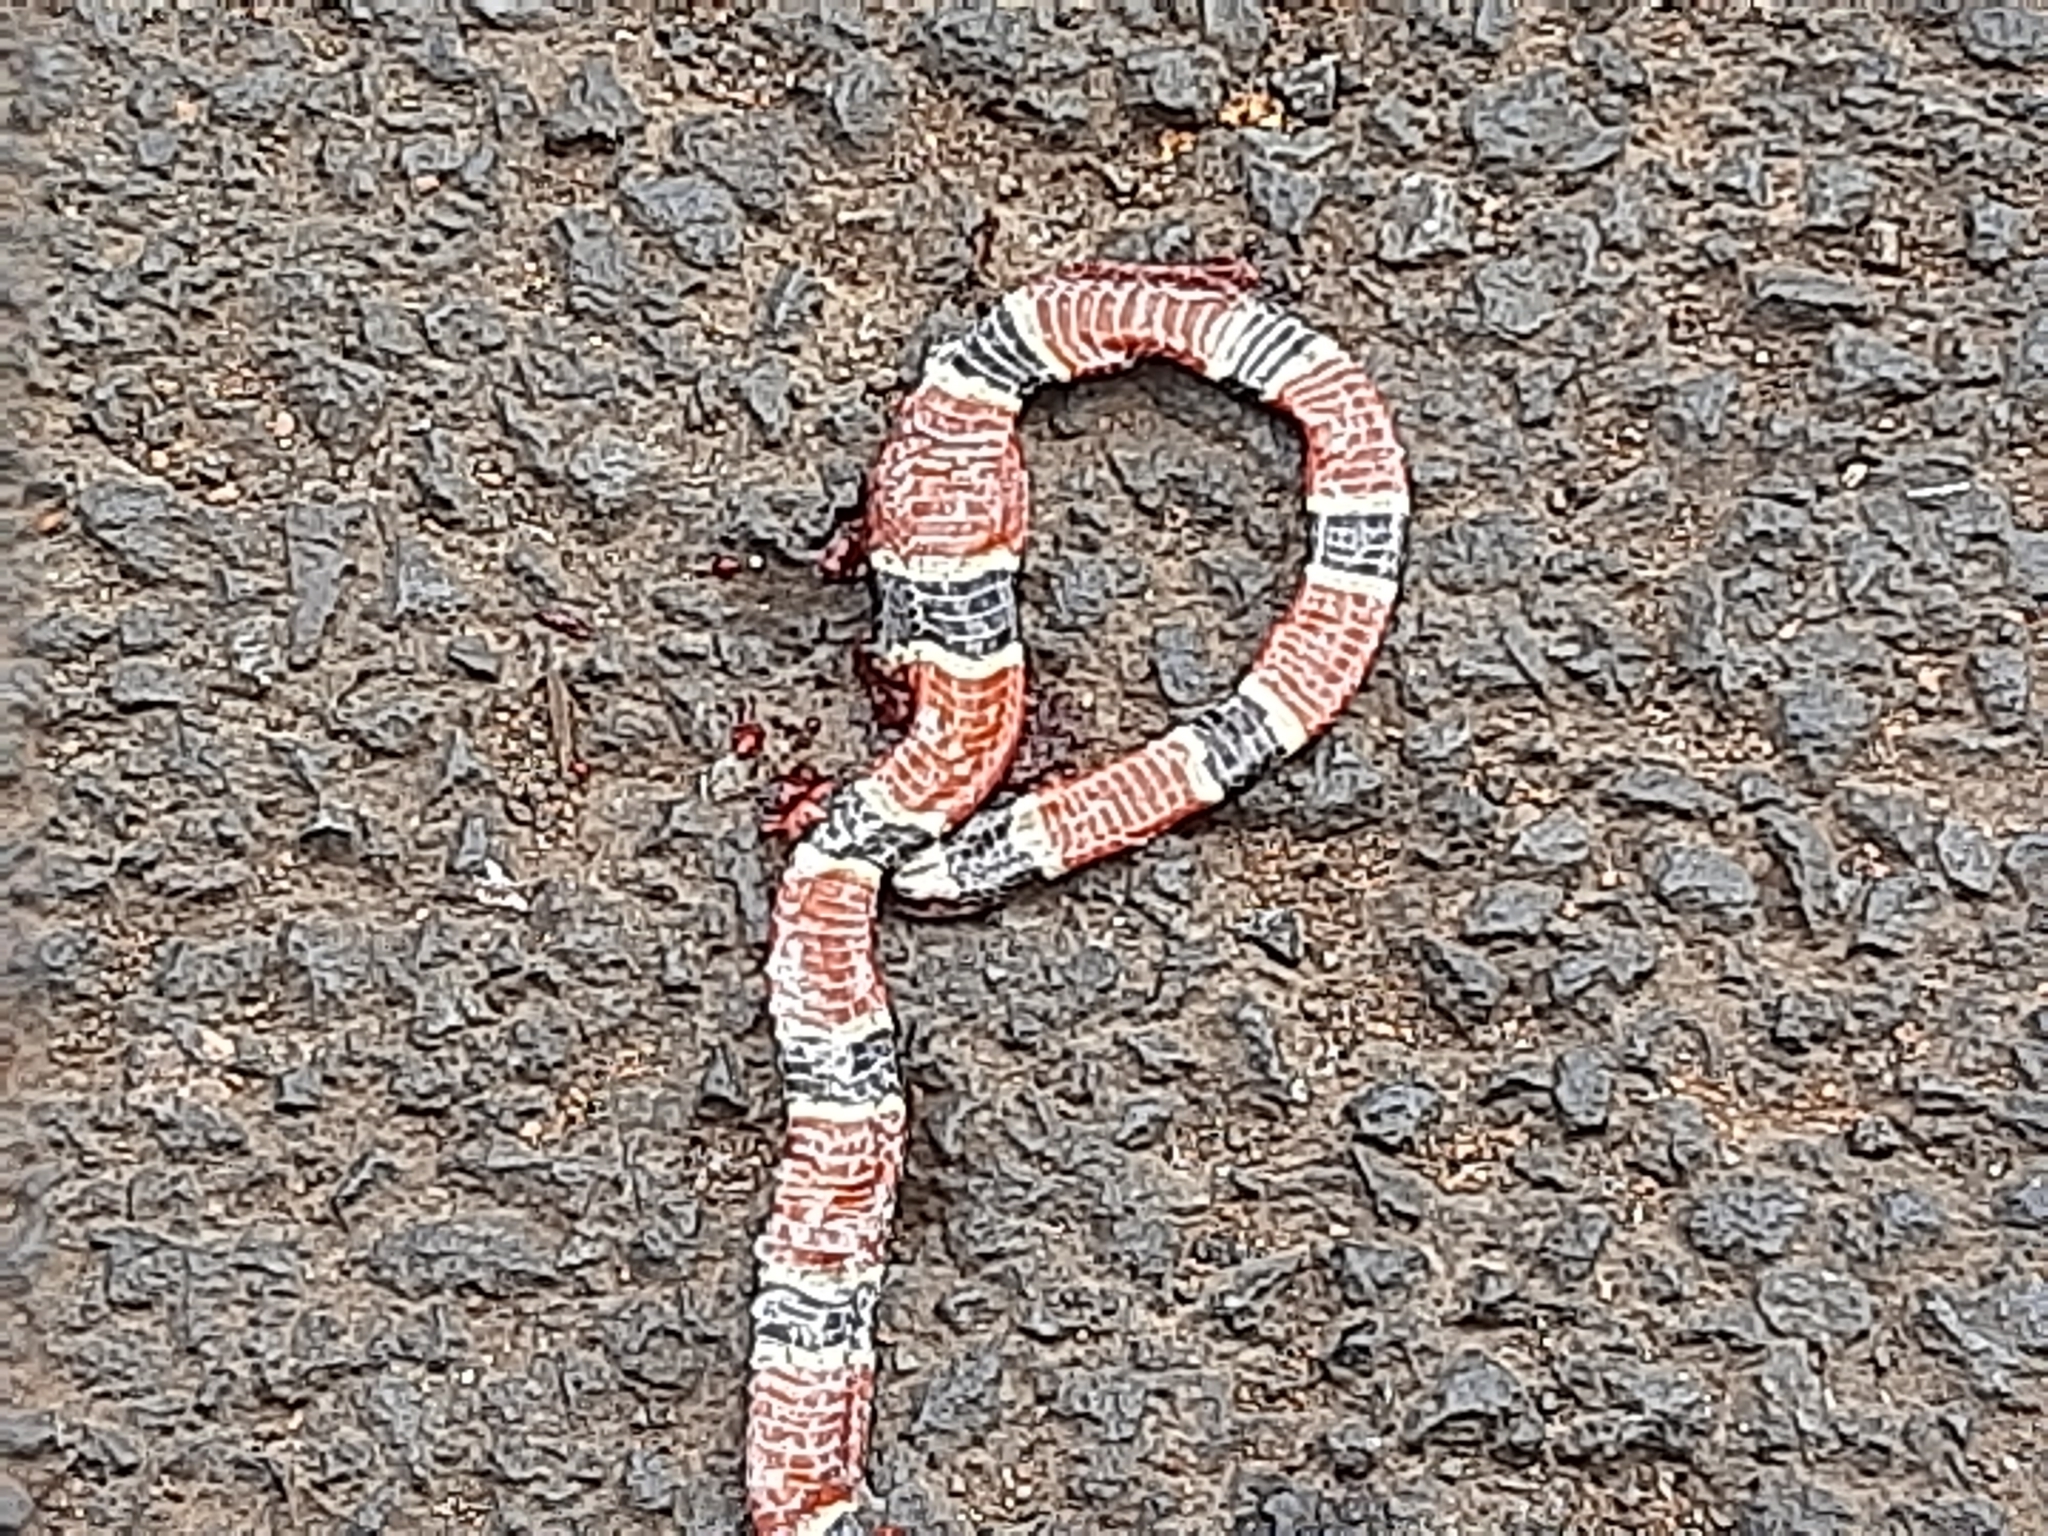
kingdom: Animalia
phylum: Chordata
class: Squamata
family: Elapidae
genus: Micrurus
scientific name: Micrurus nigrocinctus
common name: Babaspul [babaspul]
